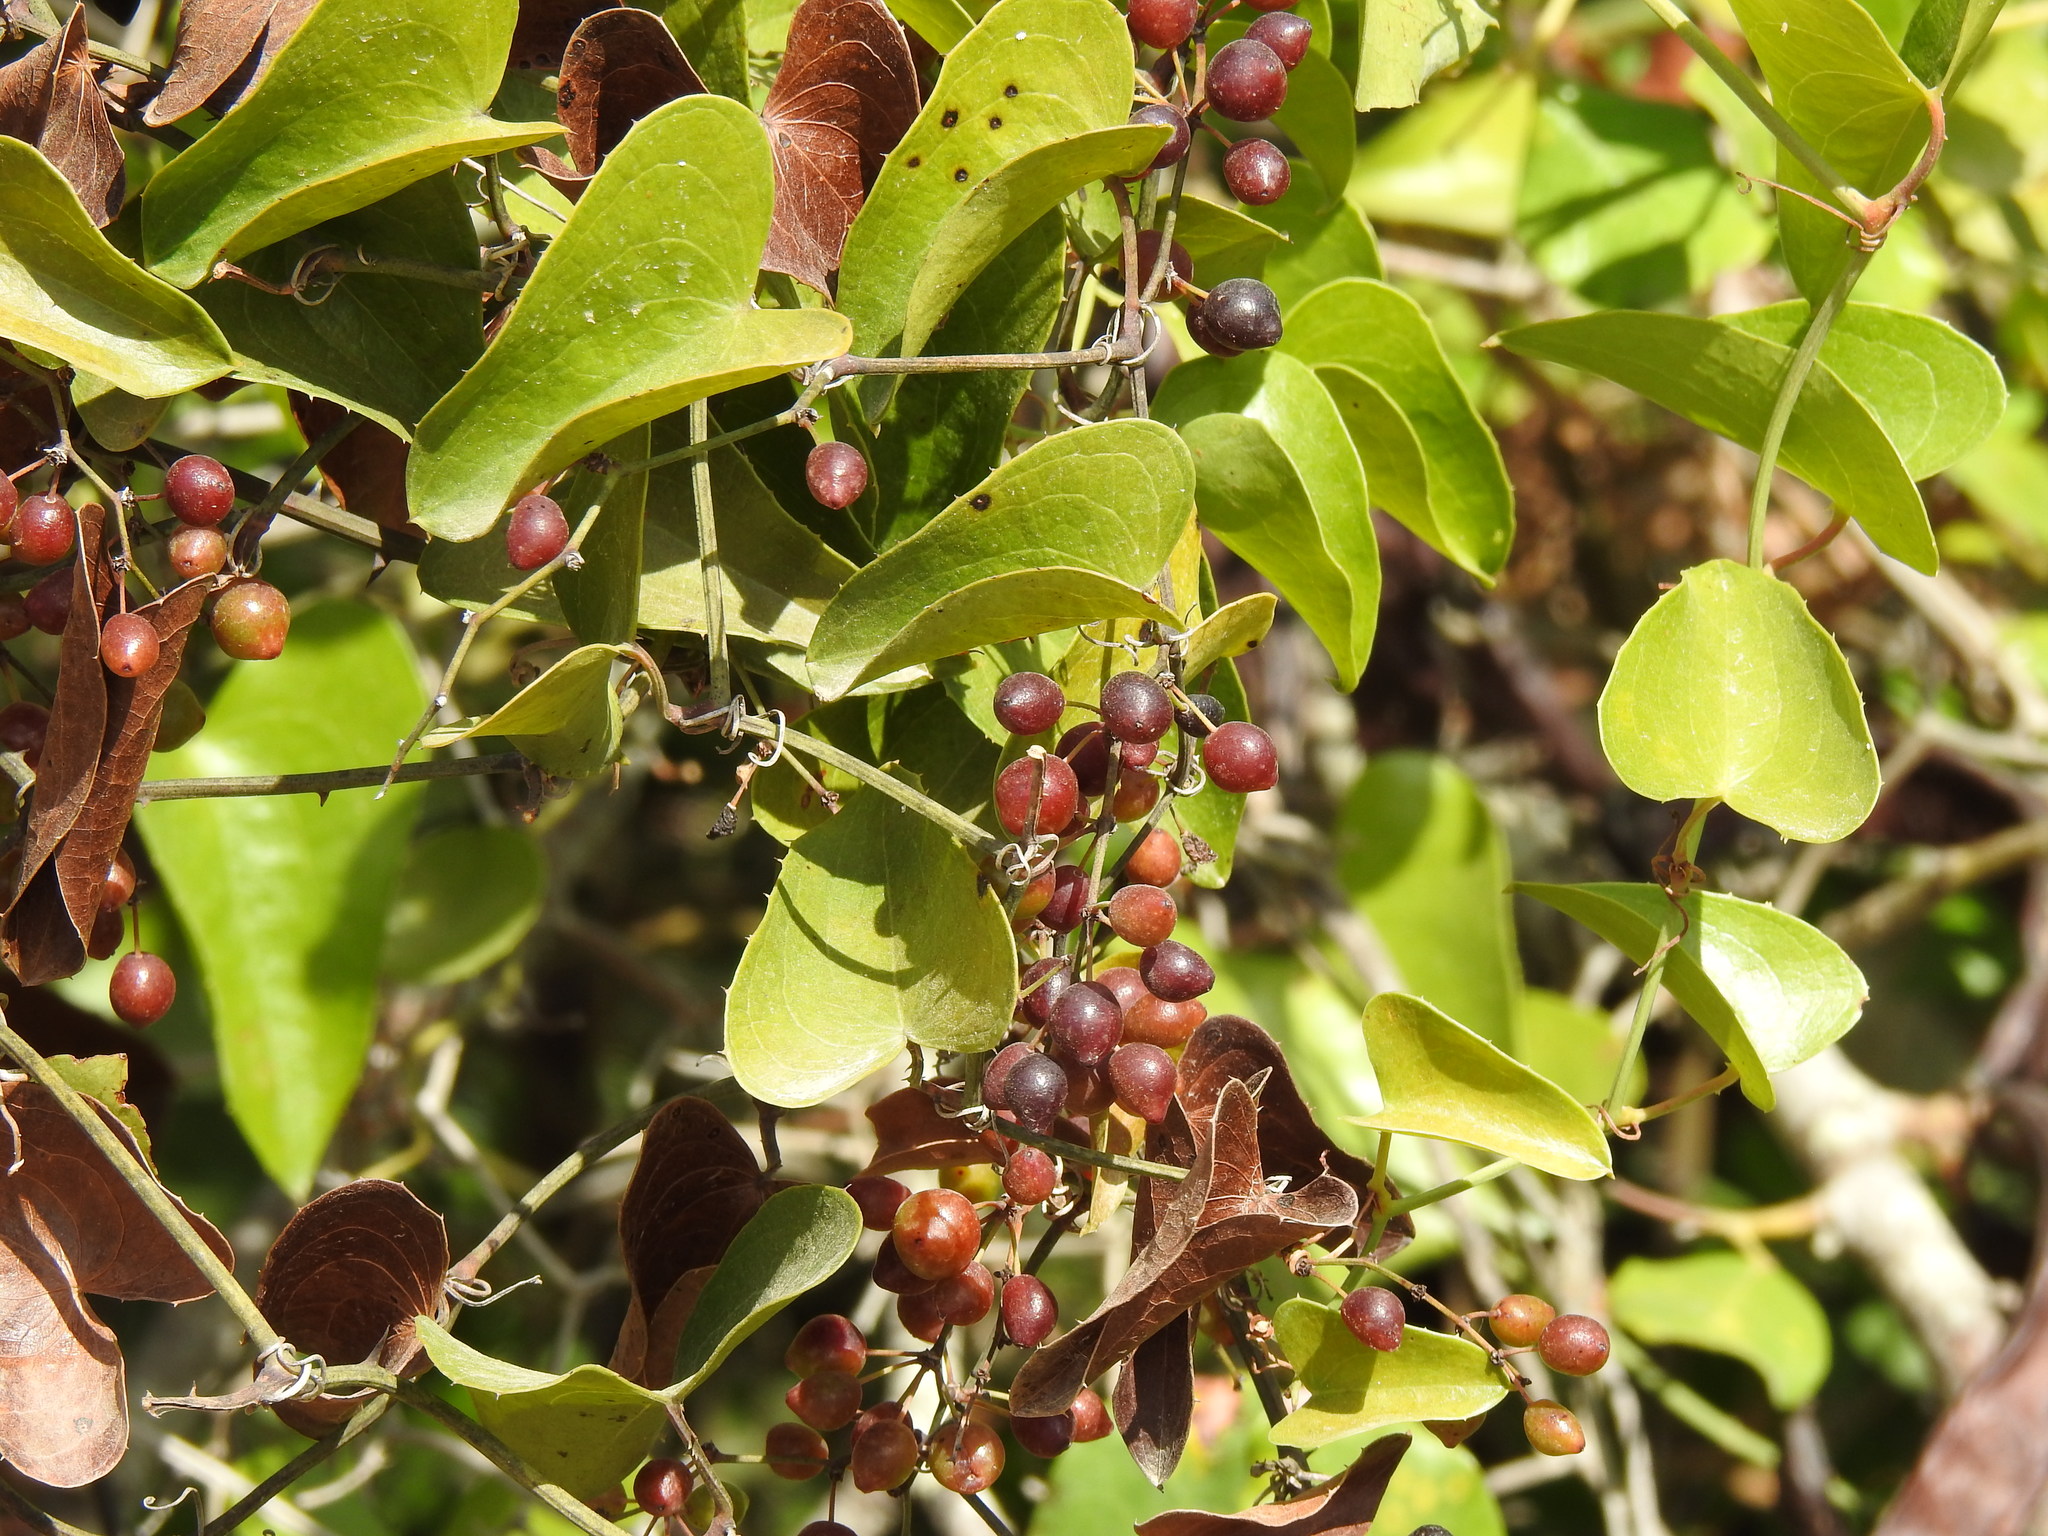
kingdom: Plantae
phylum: Tracheophyta
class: Liliopsida
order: Liliales
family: Smilacaceae
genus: Smilax
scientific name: Smilax aspera
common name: Common smilax
